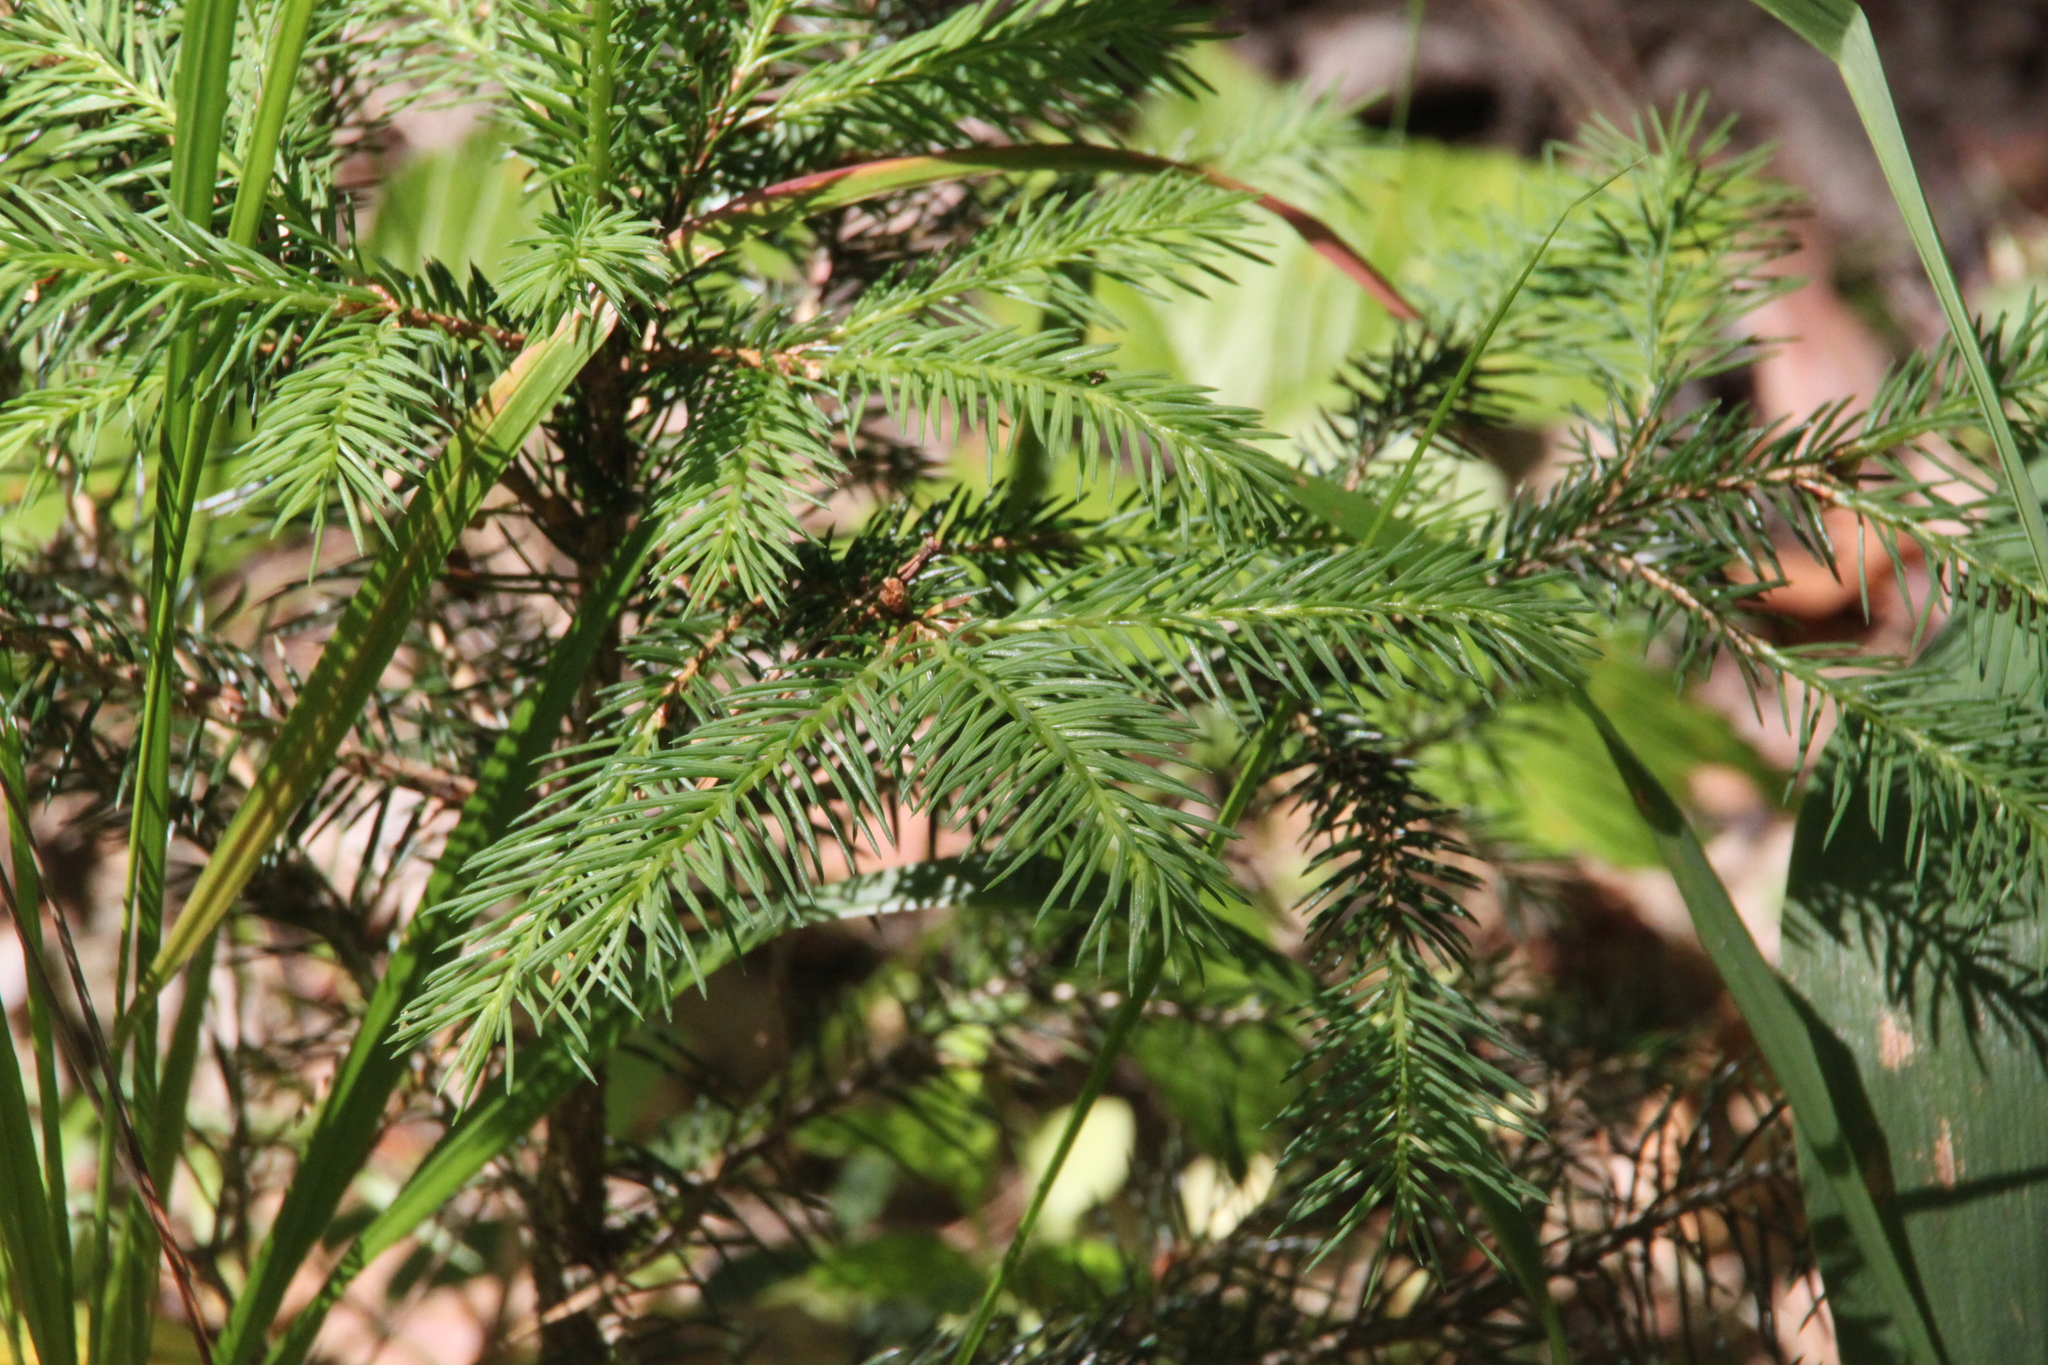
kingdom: Plantae
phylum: Tracheophyta
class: Pinopsida
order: Pinales
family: Pinaceae
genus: Picea
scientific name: Picea abies
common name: Norway spruce
